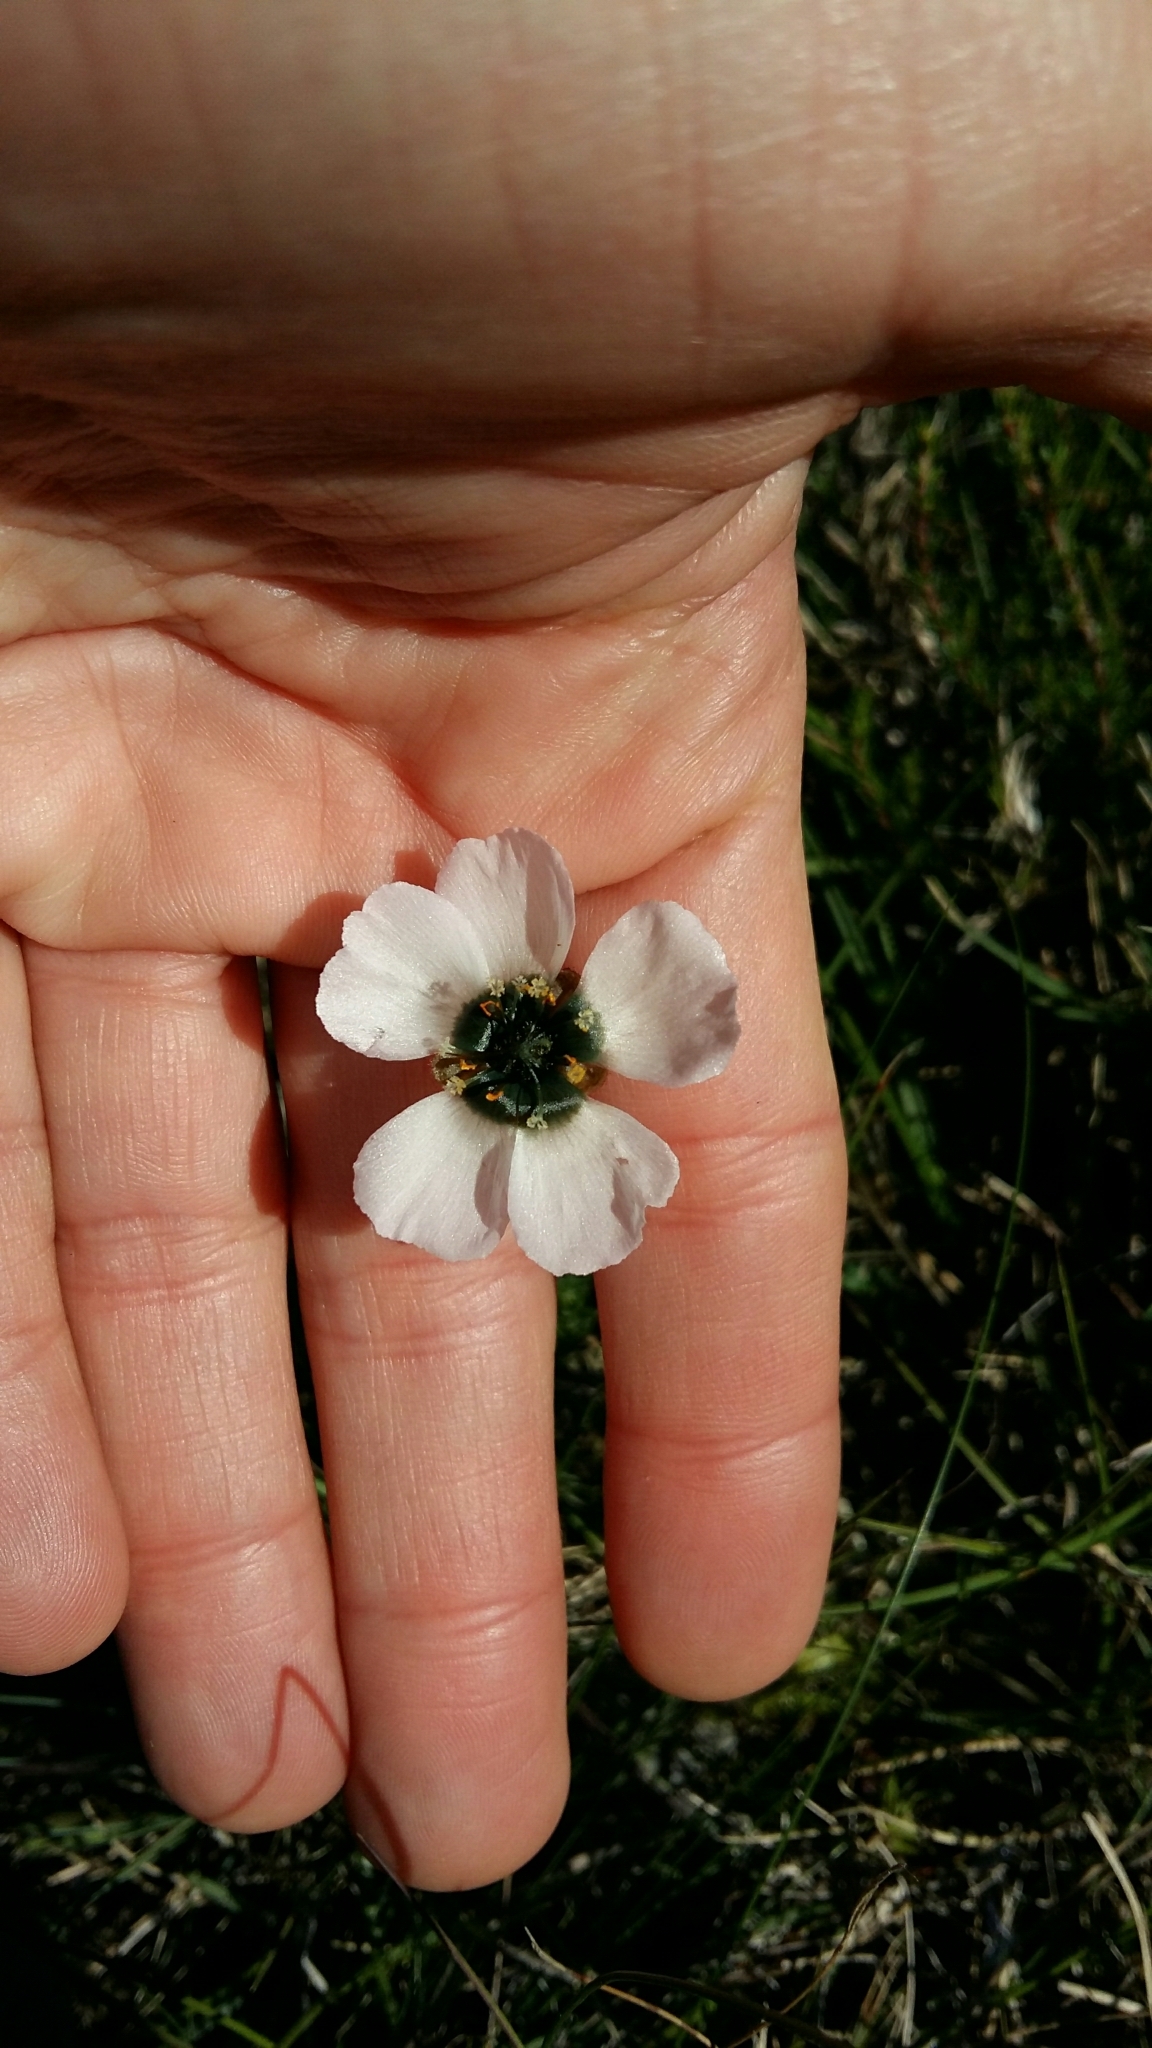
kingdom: Plantae
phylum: Tracheophyta
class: Magnoliopsida
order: Caryophyllales
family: Droseraceae
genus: Drosera
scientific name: Drosera cistiflora
